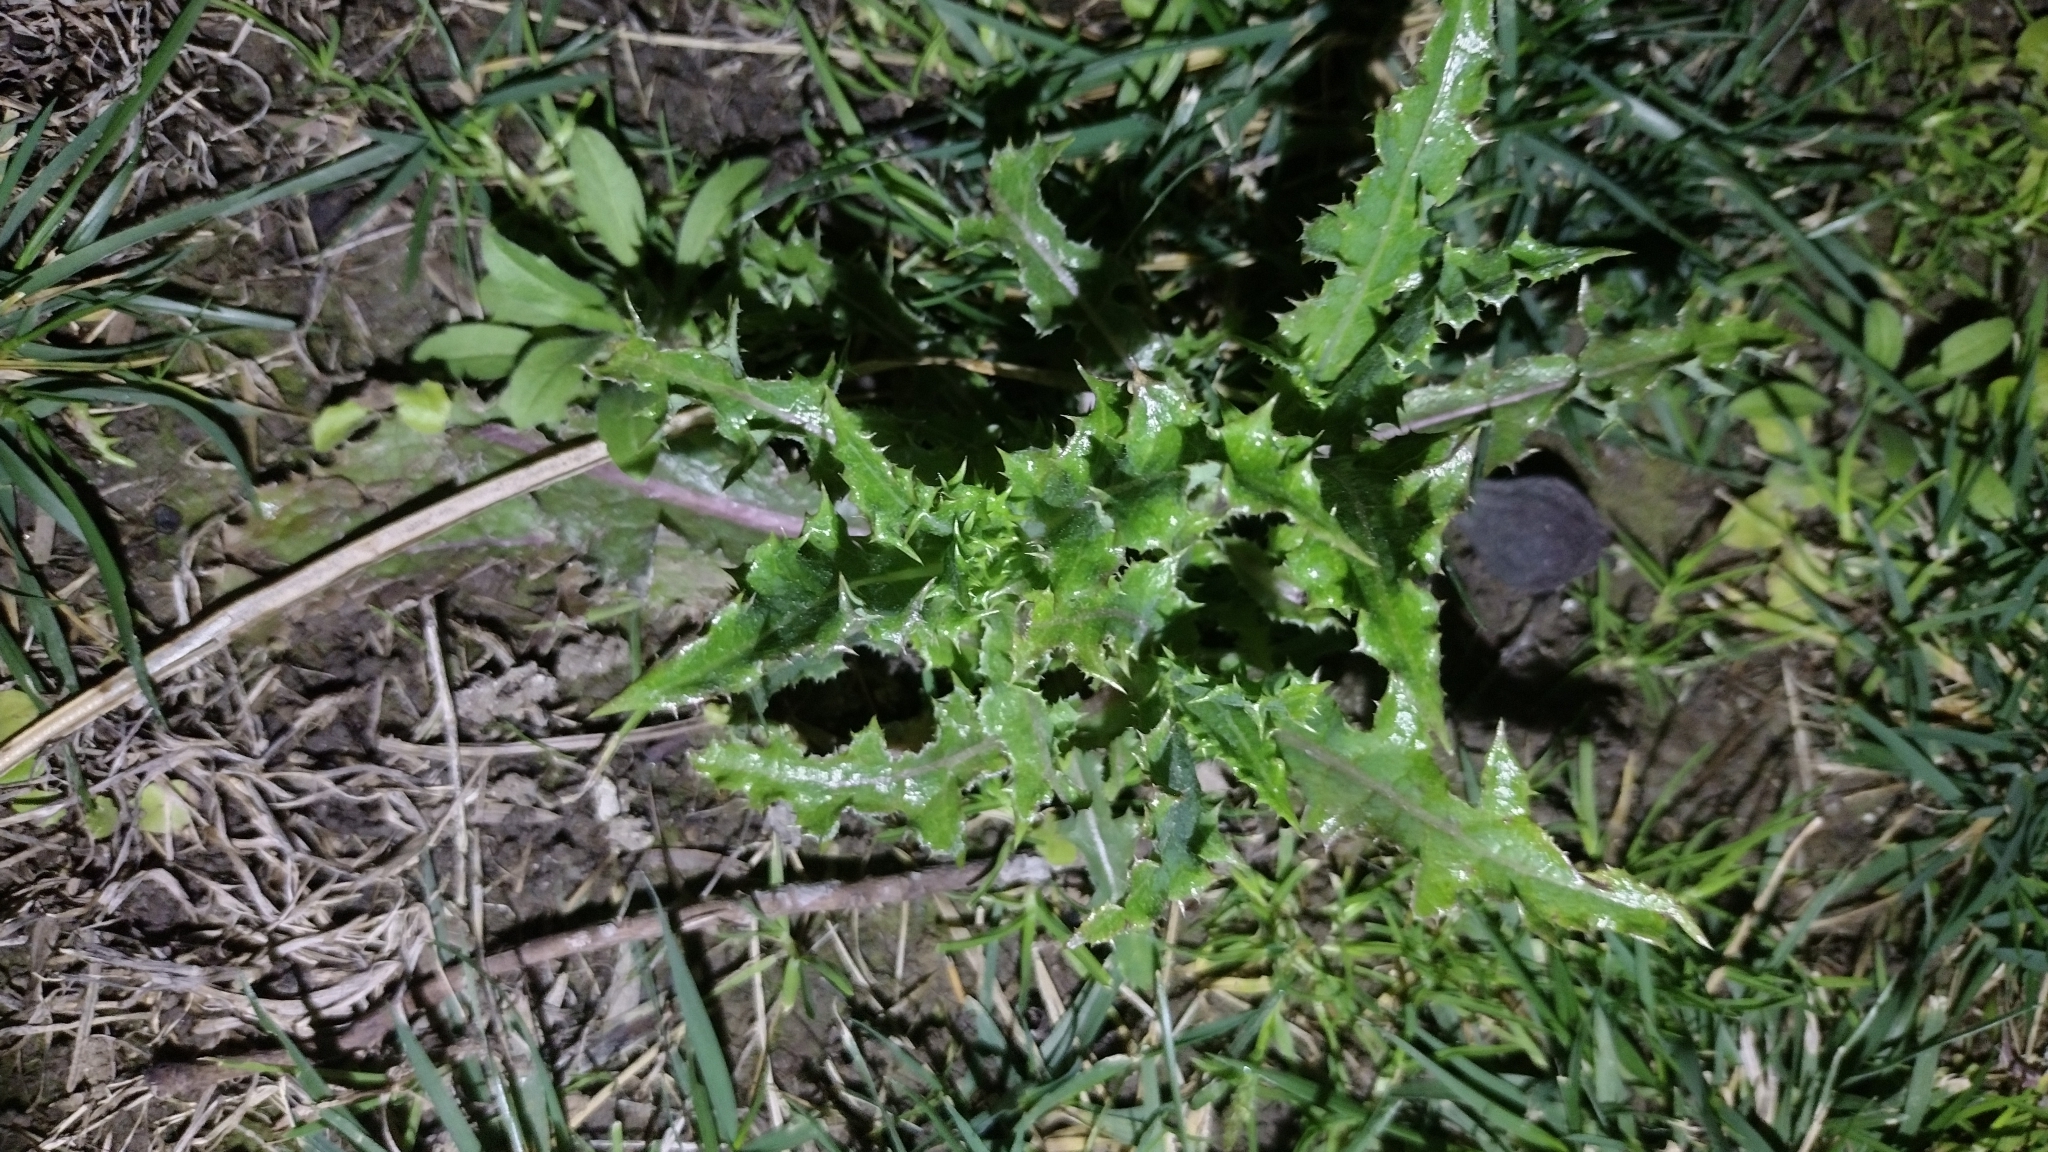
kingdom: Plantae
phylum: Tracheophyta
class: Magnoliopsida
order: Asterales
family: Asteraceae
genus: Sonchus
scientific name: Sonchus asper
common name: Prickly sow-thistle
